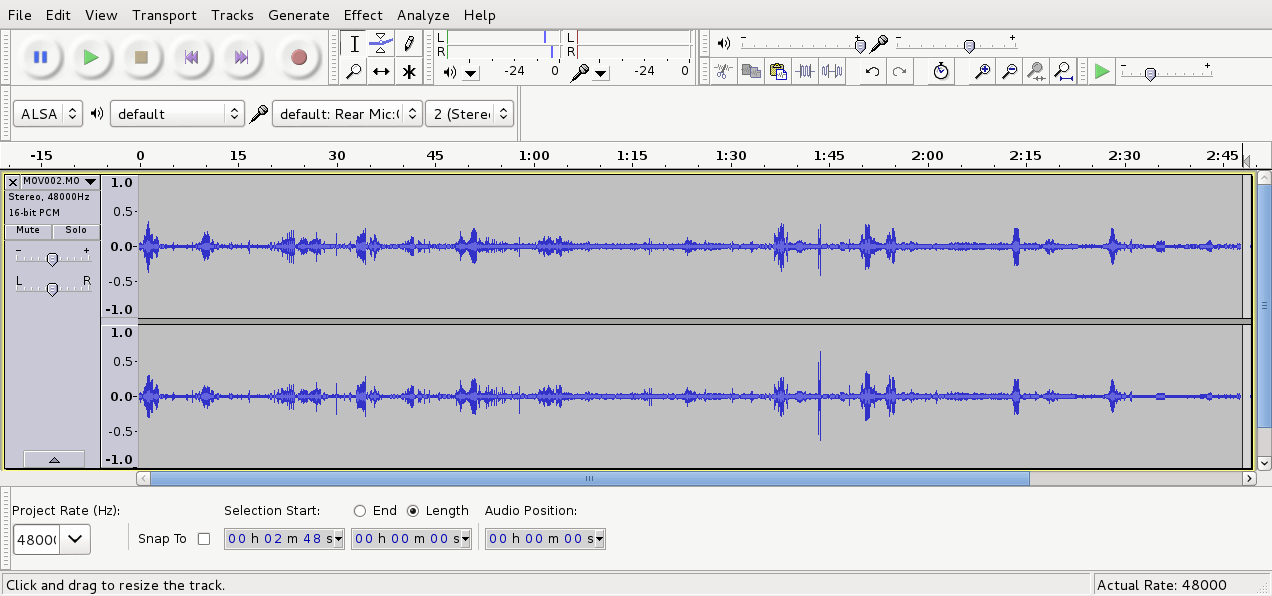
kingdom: Animalia
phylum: Chordata
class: Aves
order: Passeriformes
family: Acanthizidae
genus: Mohoua
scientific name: Mohoua albicilla
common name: Whitehead
